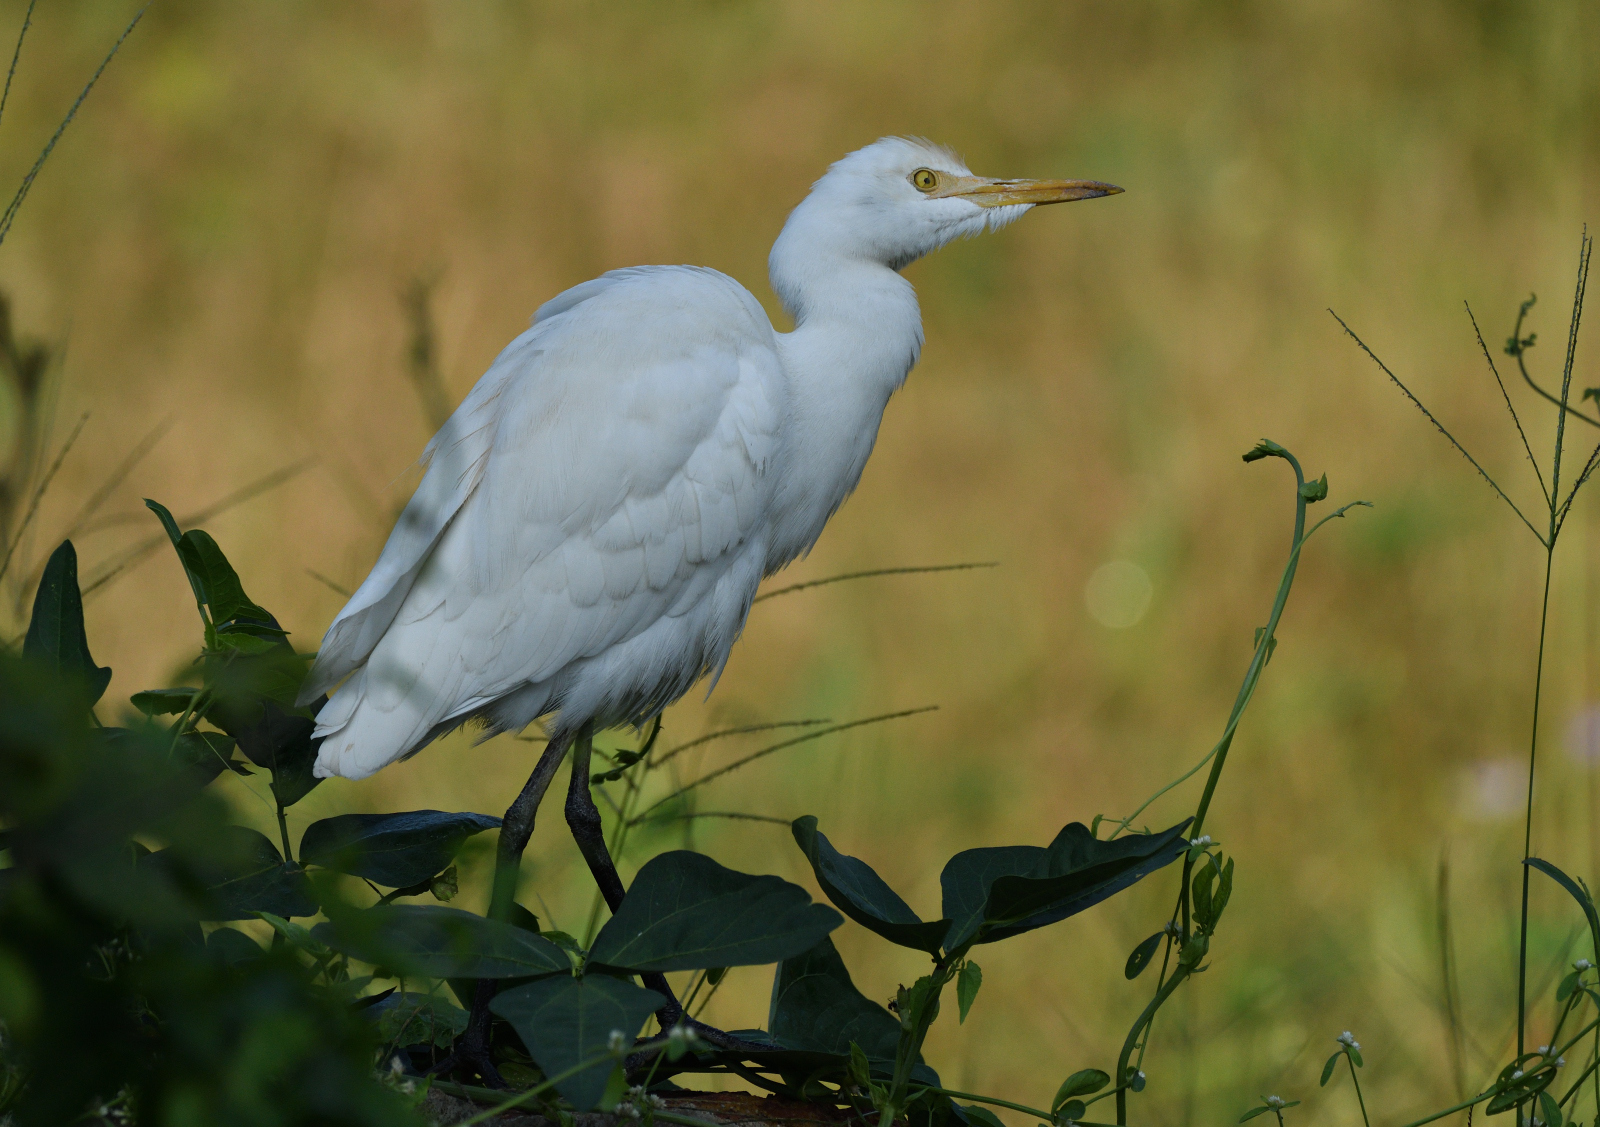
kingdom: Animalia
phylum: Chordata
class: Aves
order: Pelecaniformes
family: Ardeidae
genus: Bubulcus
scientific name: Bubulcus coromandus
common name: Eastern cattle egret
